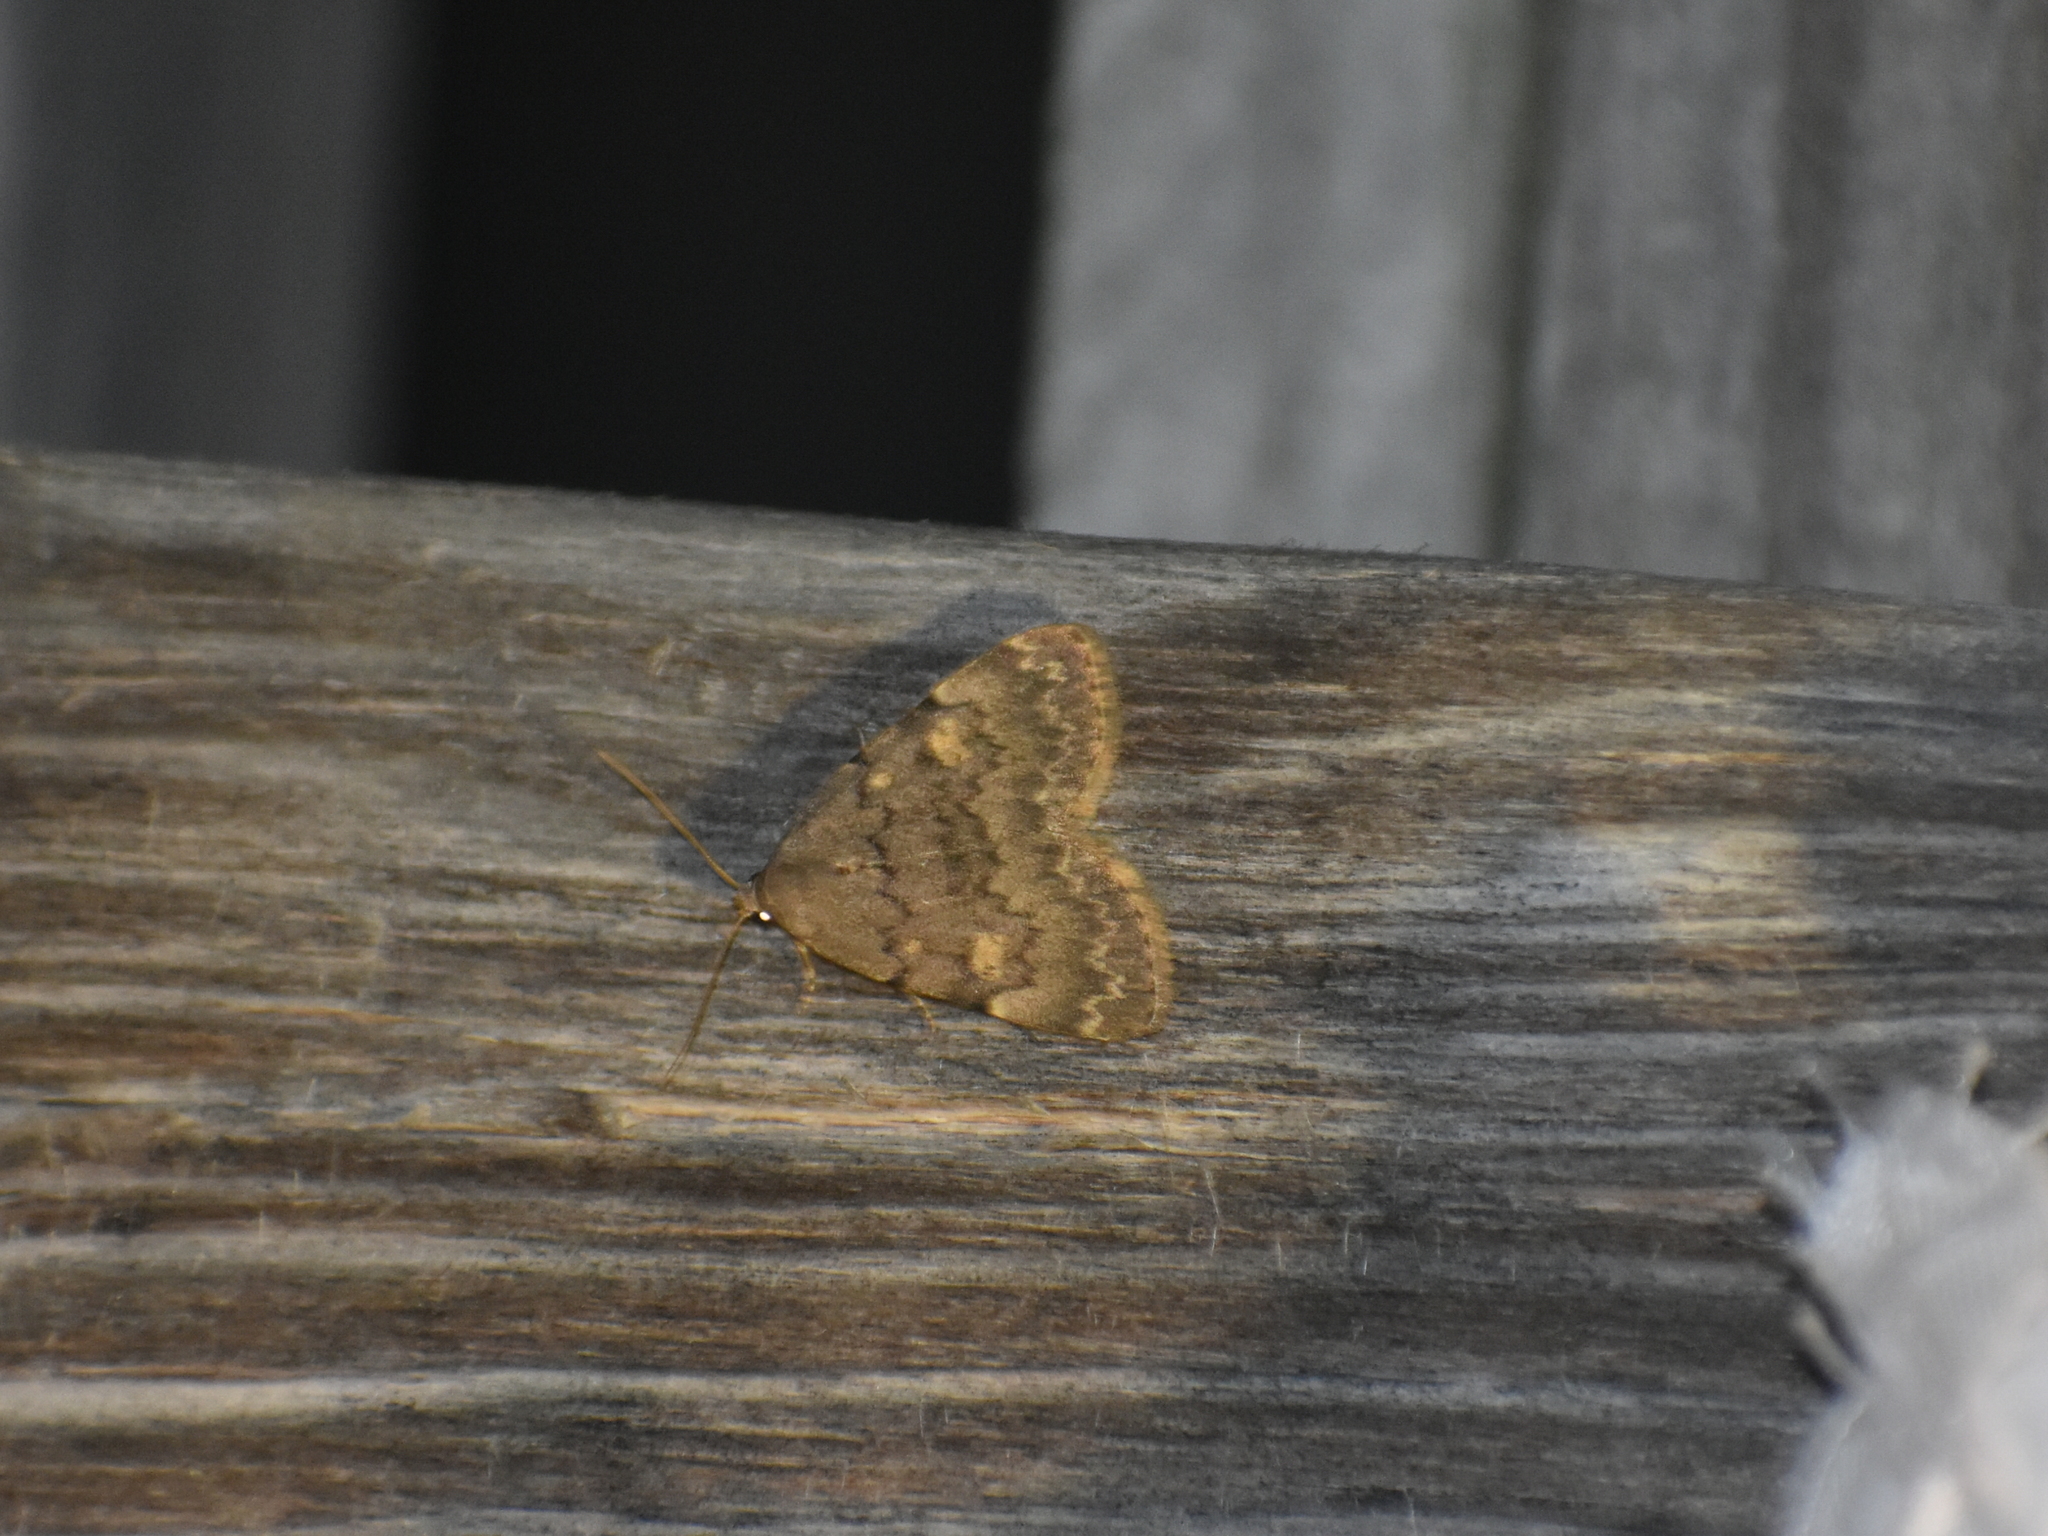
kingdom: Animalia
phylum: Arthropoda
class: Insecta
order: Lepidoptera
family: Erebidae
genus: Idia
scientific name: Idia aemula
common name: Common idia moth
